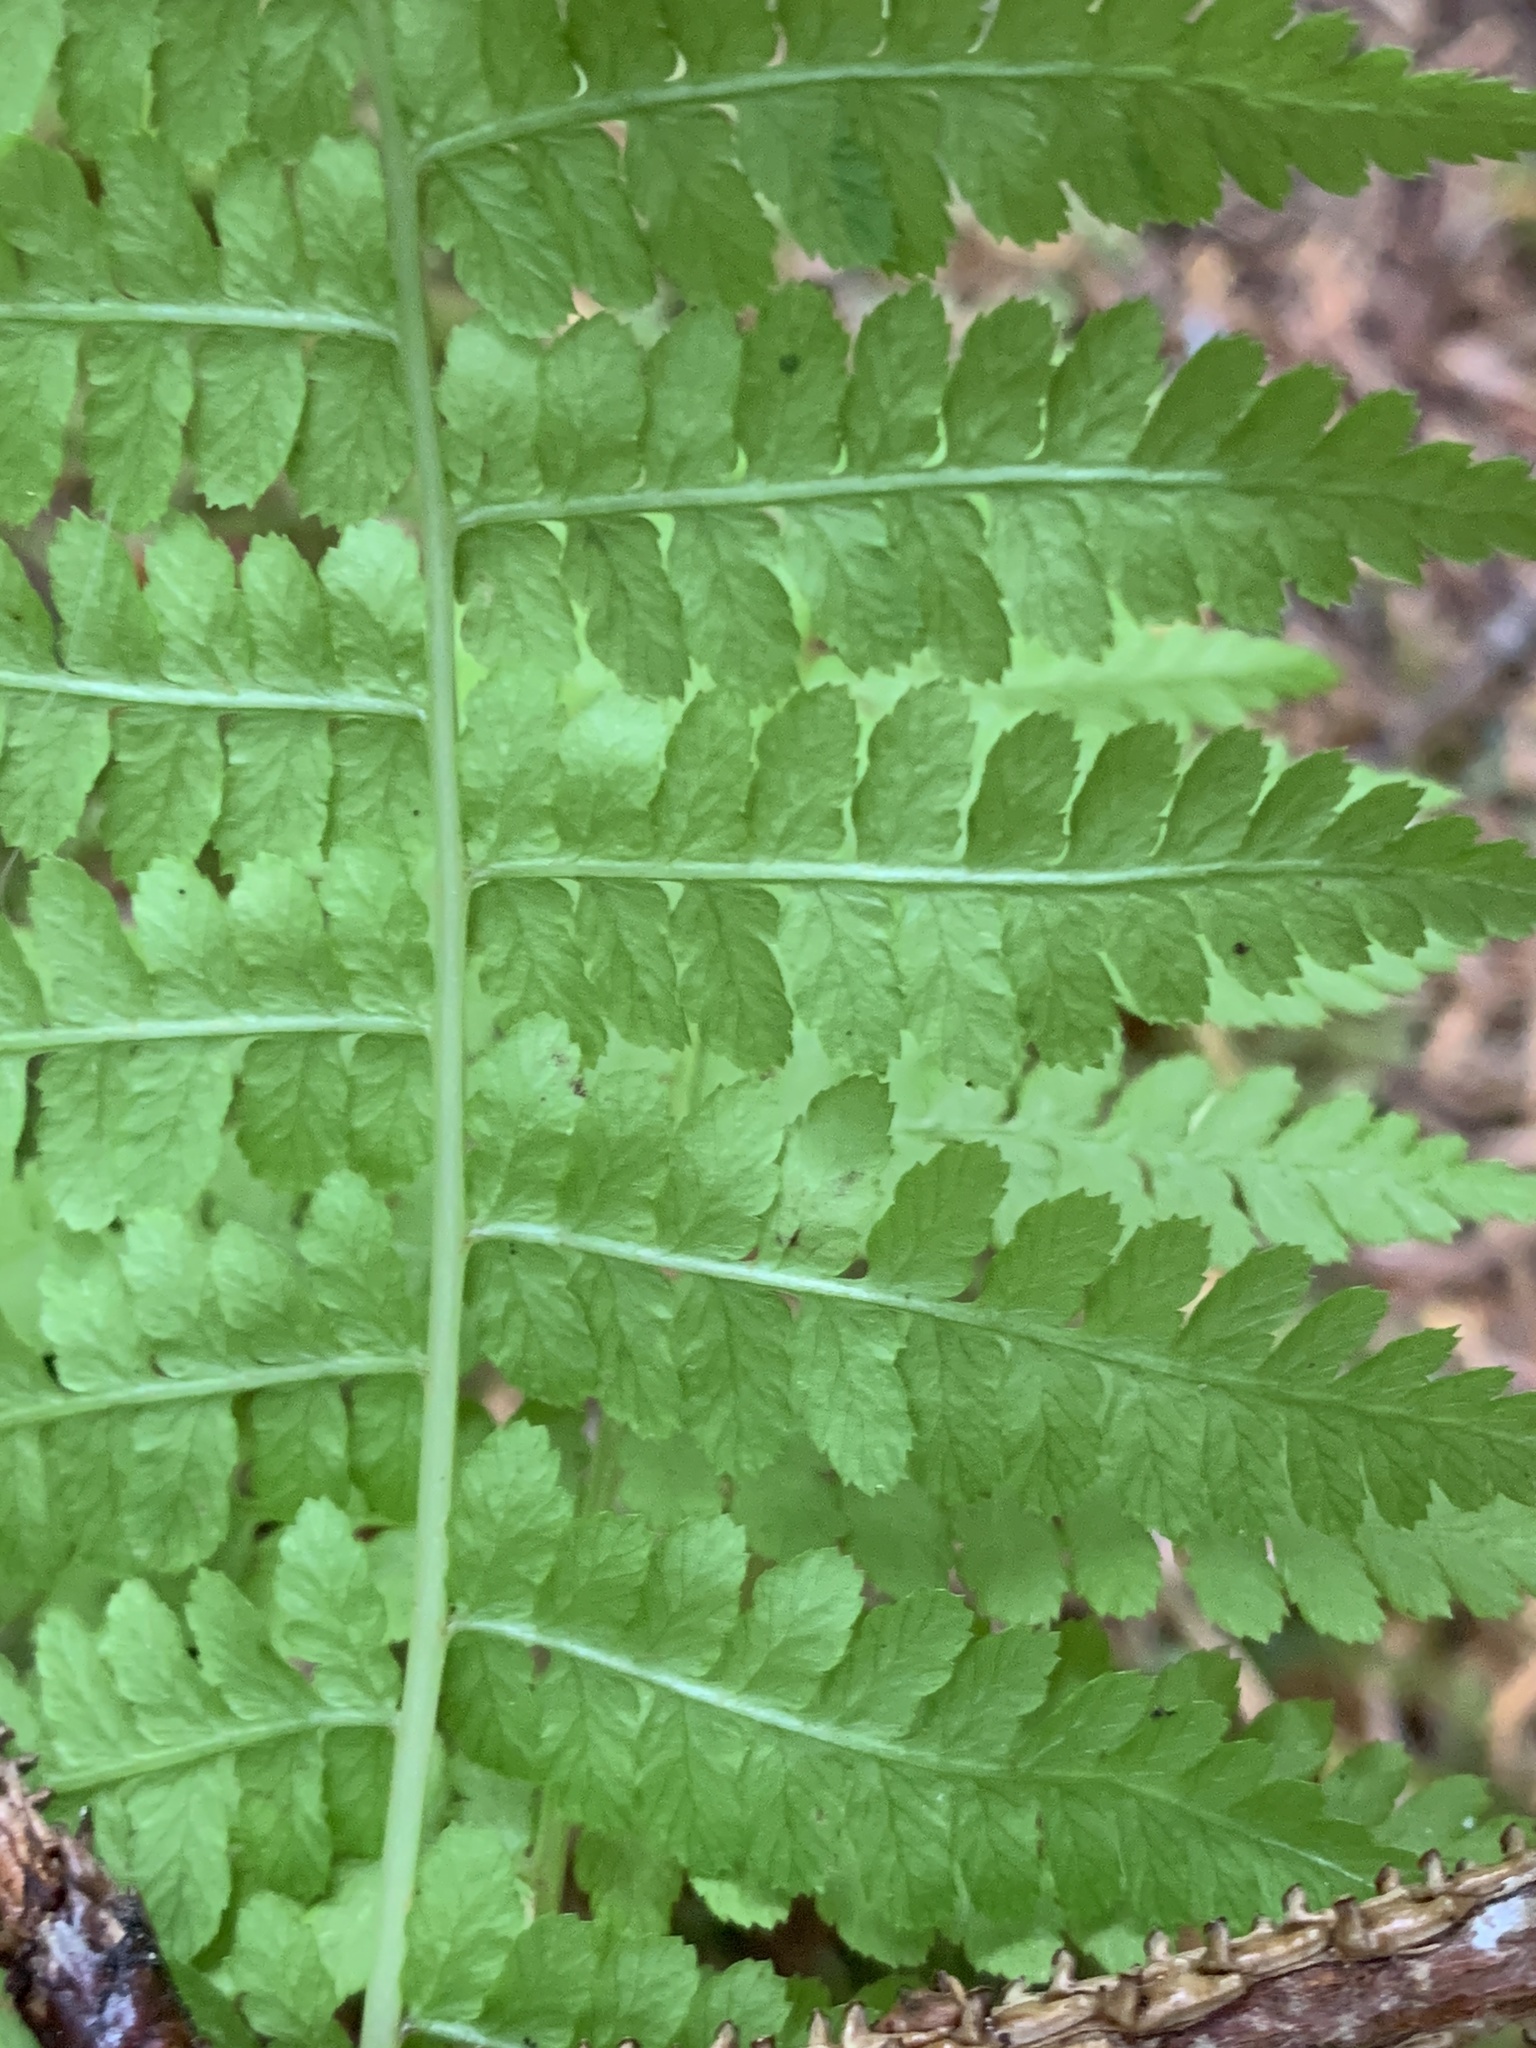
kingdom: Plantae
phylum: Tracheophyta
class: Polypodiopsida
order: Polypodiales
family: Athyriaceae
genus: Athyrium
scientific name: Athyrium filix-femina
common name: Lady fern
